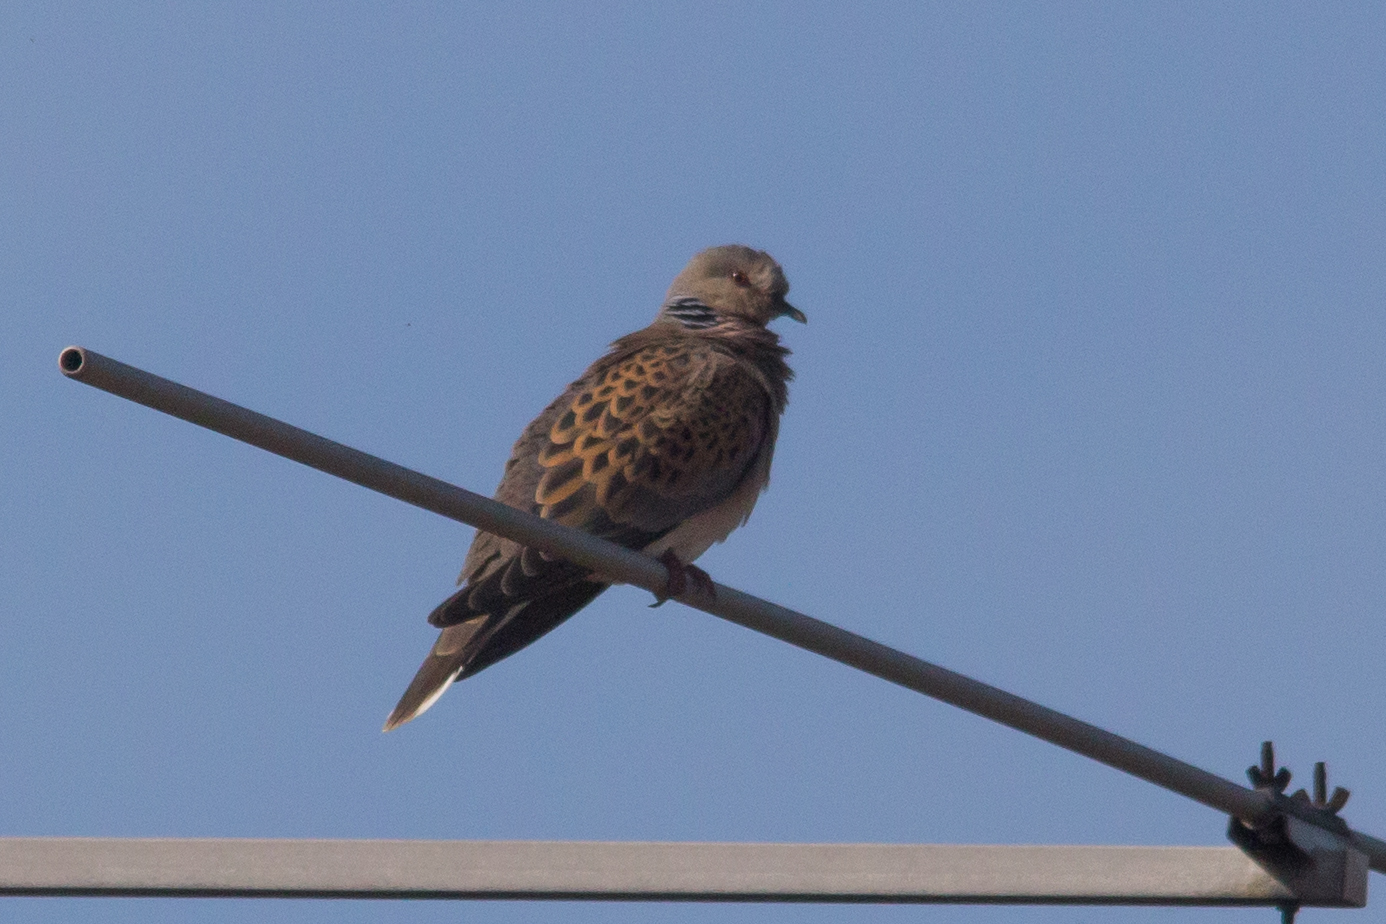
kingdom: Animalia
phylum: Chordata
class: Aves
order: Columbiformes
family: Columbidae
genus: Streptopelia
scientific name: Streptopelia turtur
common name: European turtle dove
